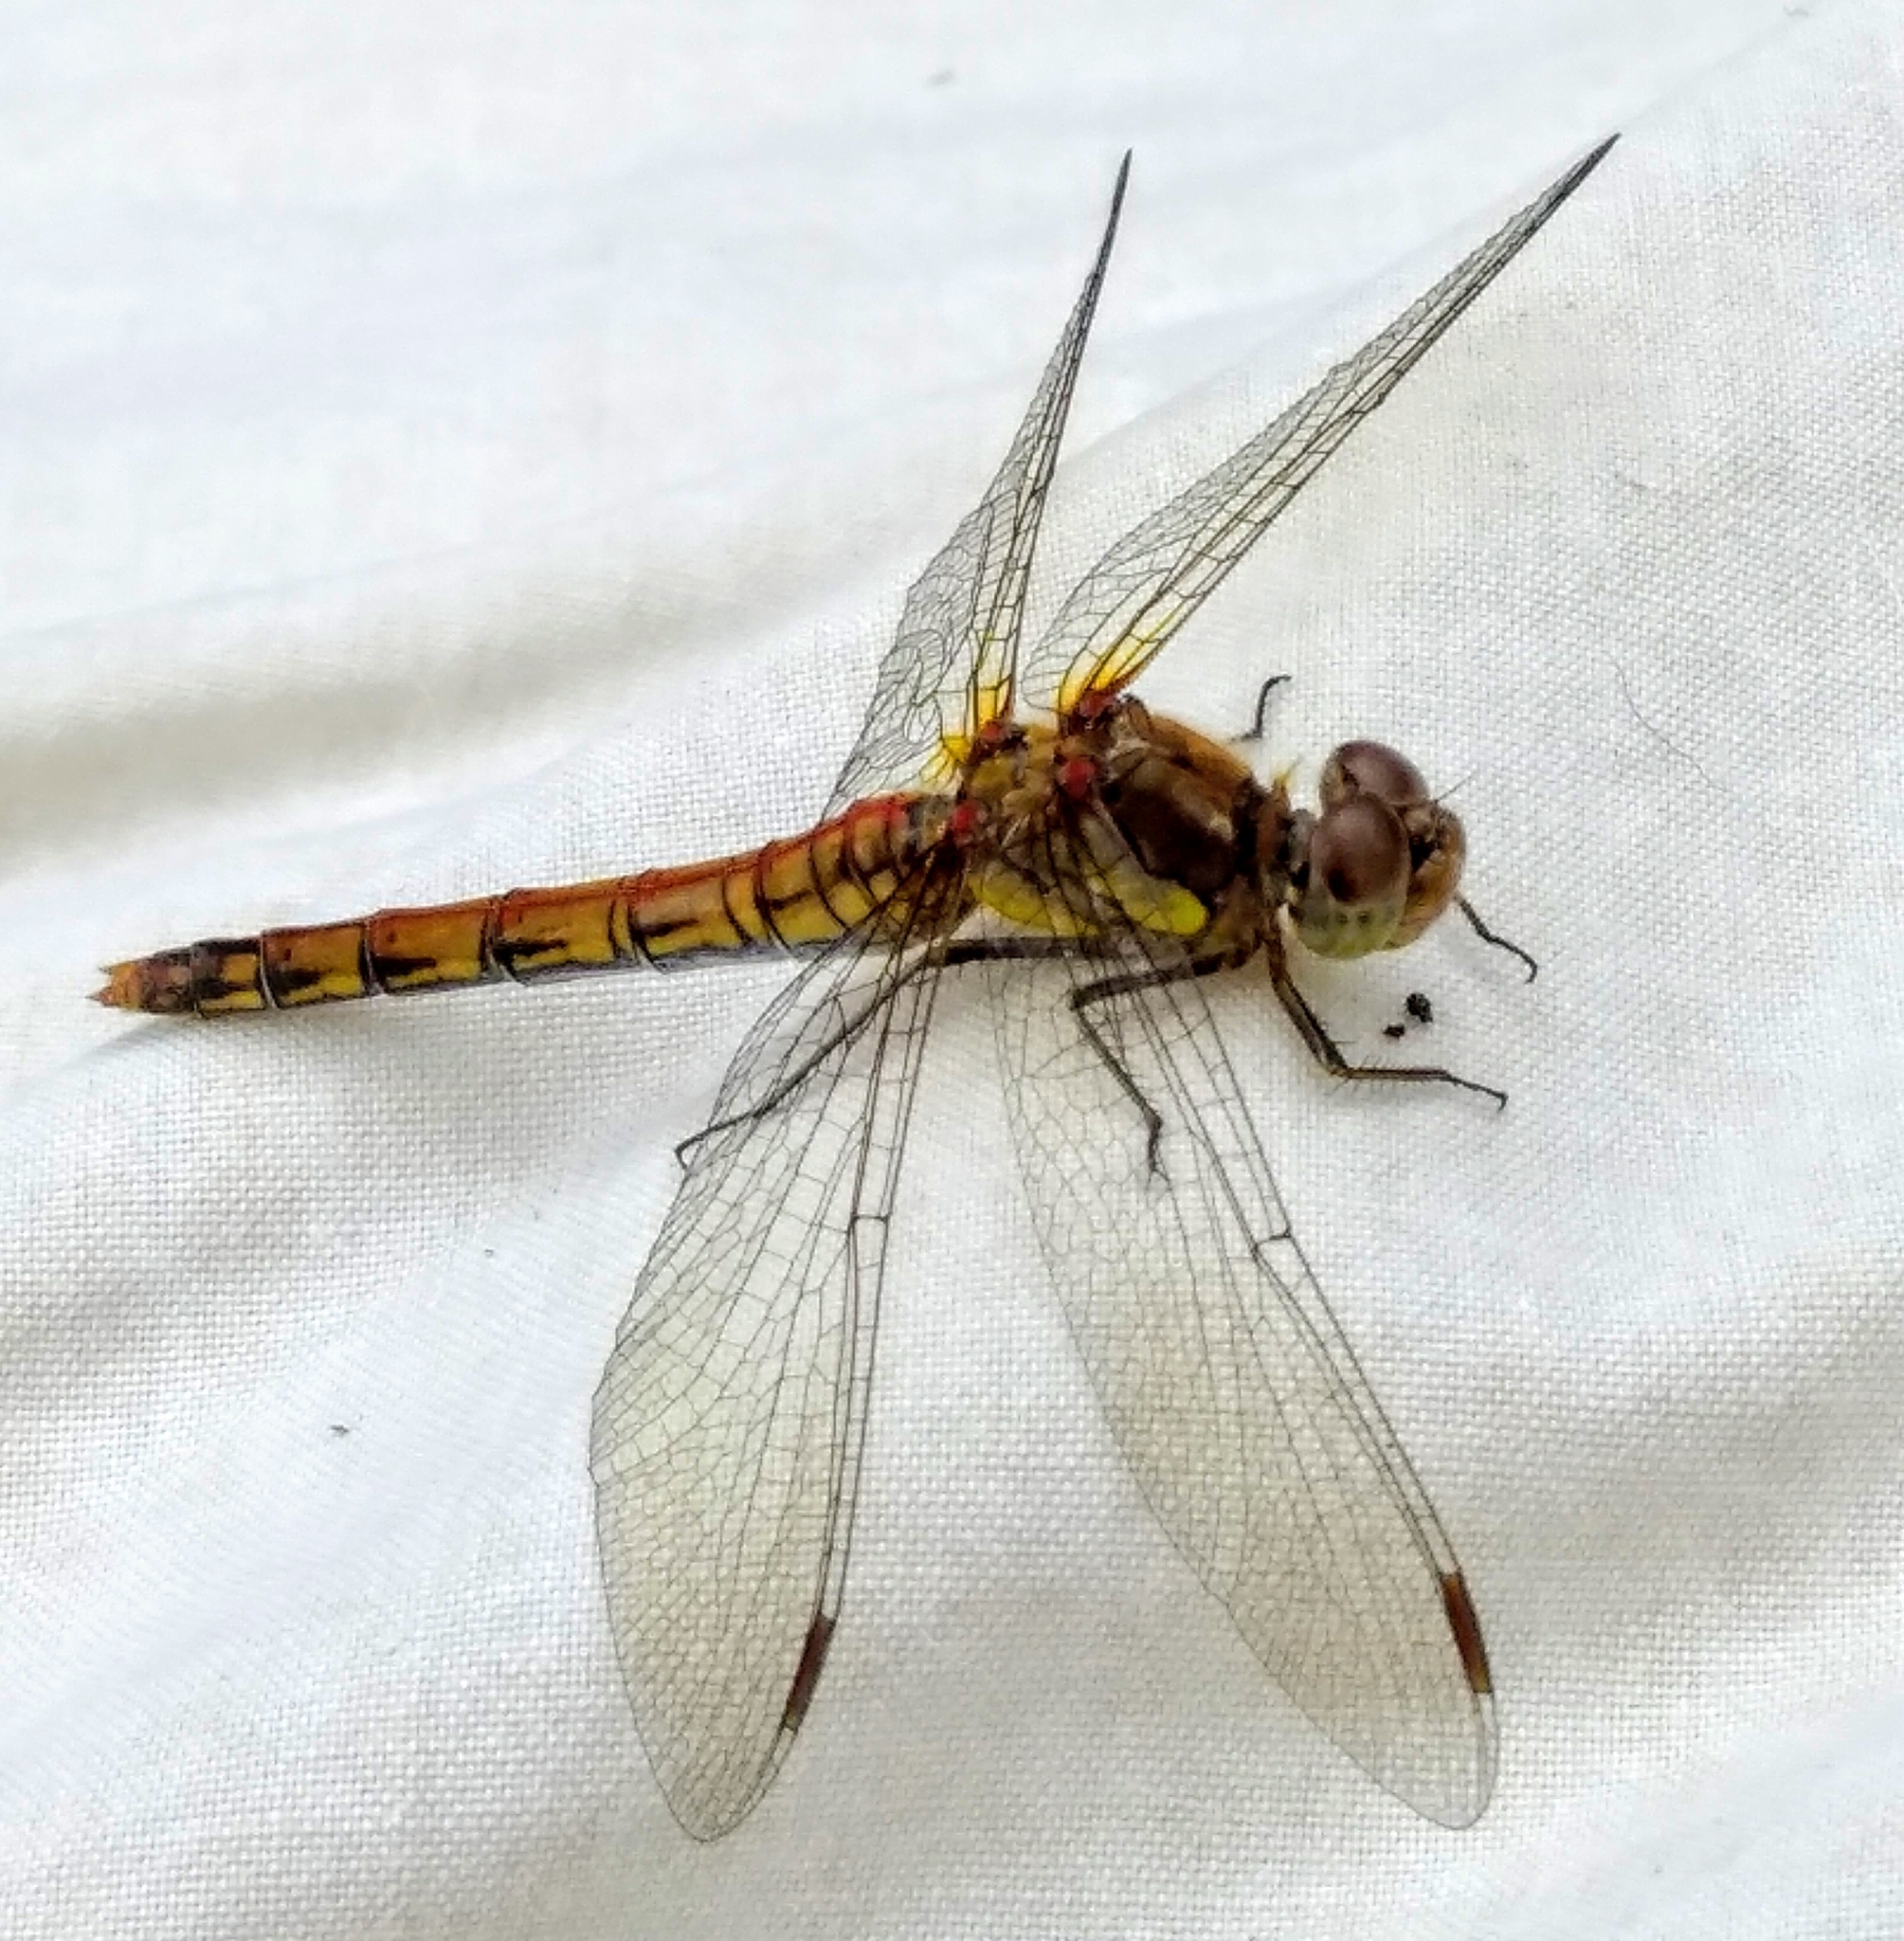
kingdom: Animalia
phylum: Arthropoda
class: Insecta
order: Odonata
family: Libellulidae
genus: Sympetrum
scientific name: Sympetrum striolatum
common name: Common darter
